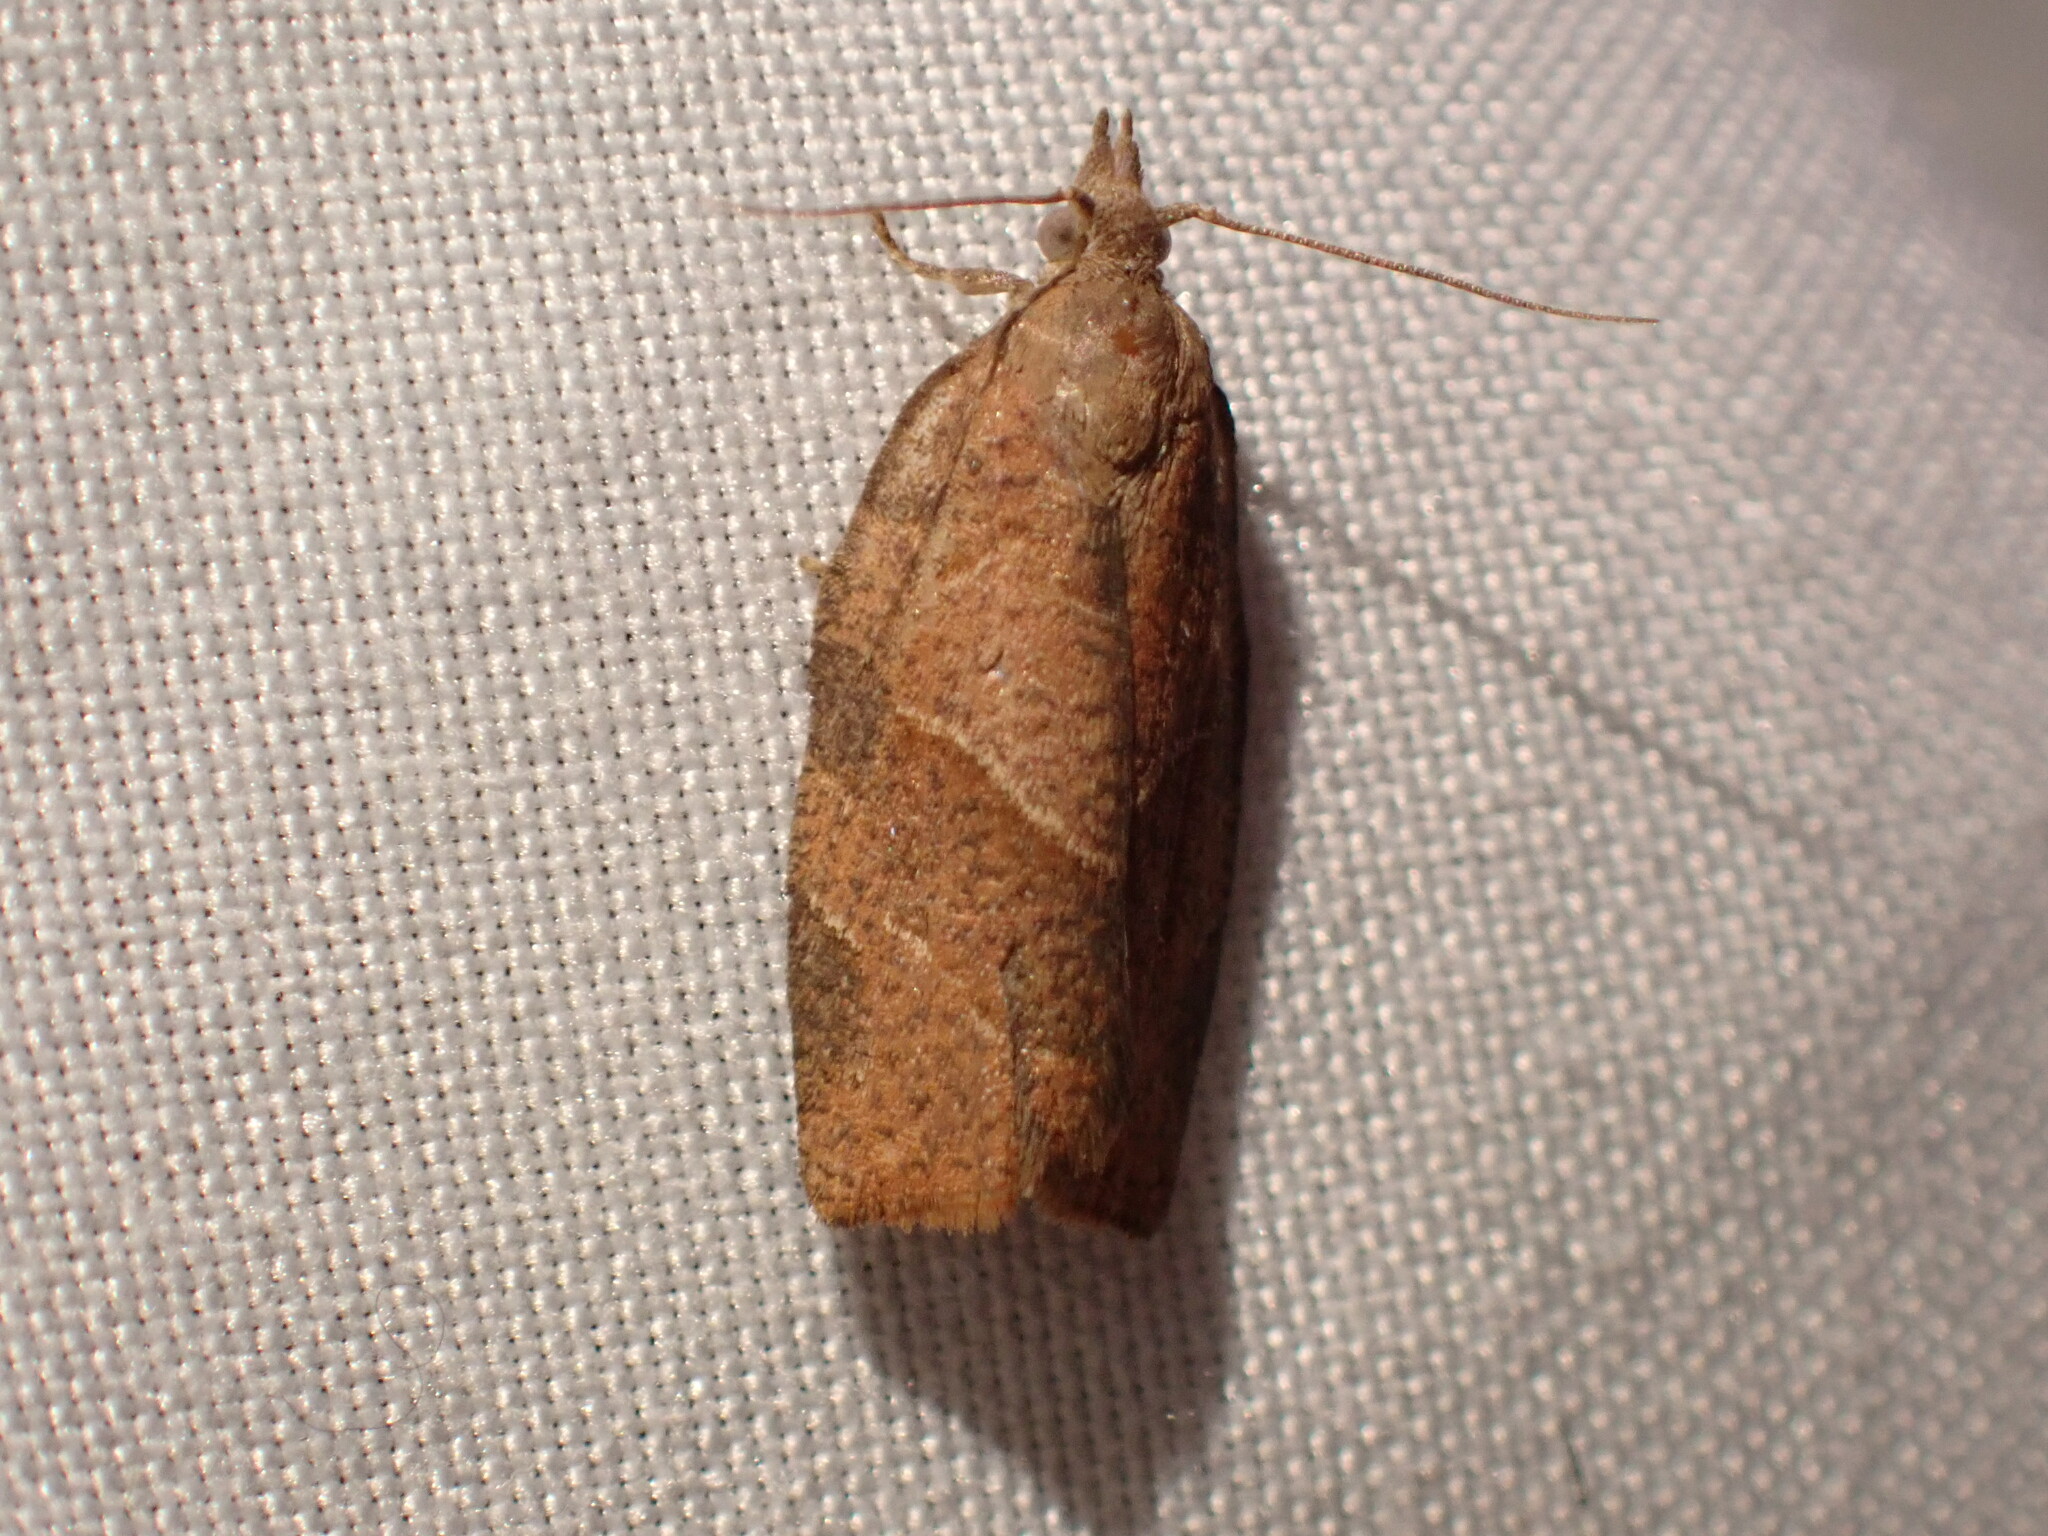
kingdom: Animalia
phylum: Arthropoda
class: Insecta
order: Lepidoptera
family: Tortricidae
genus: Pandemis
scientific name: Pandemis limitata
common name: Three-lined leafroller moth
